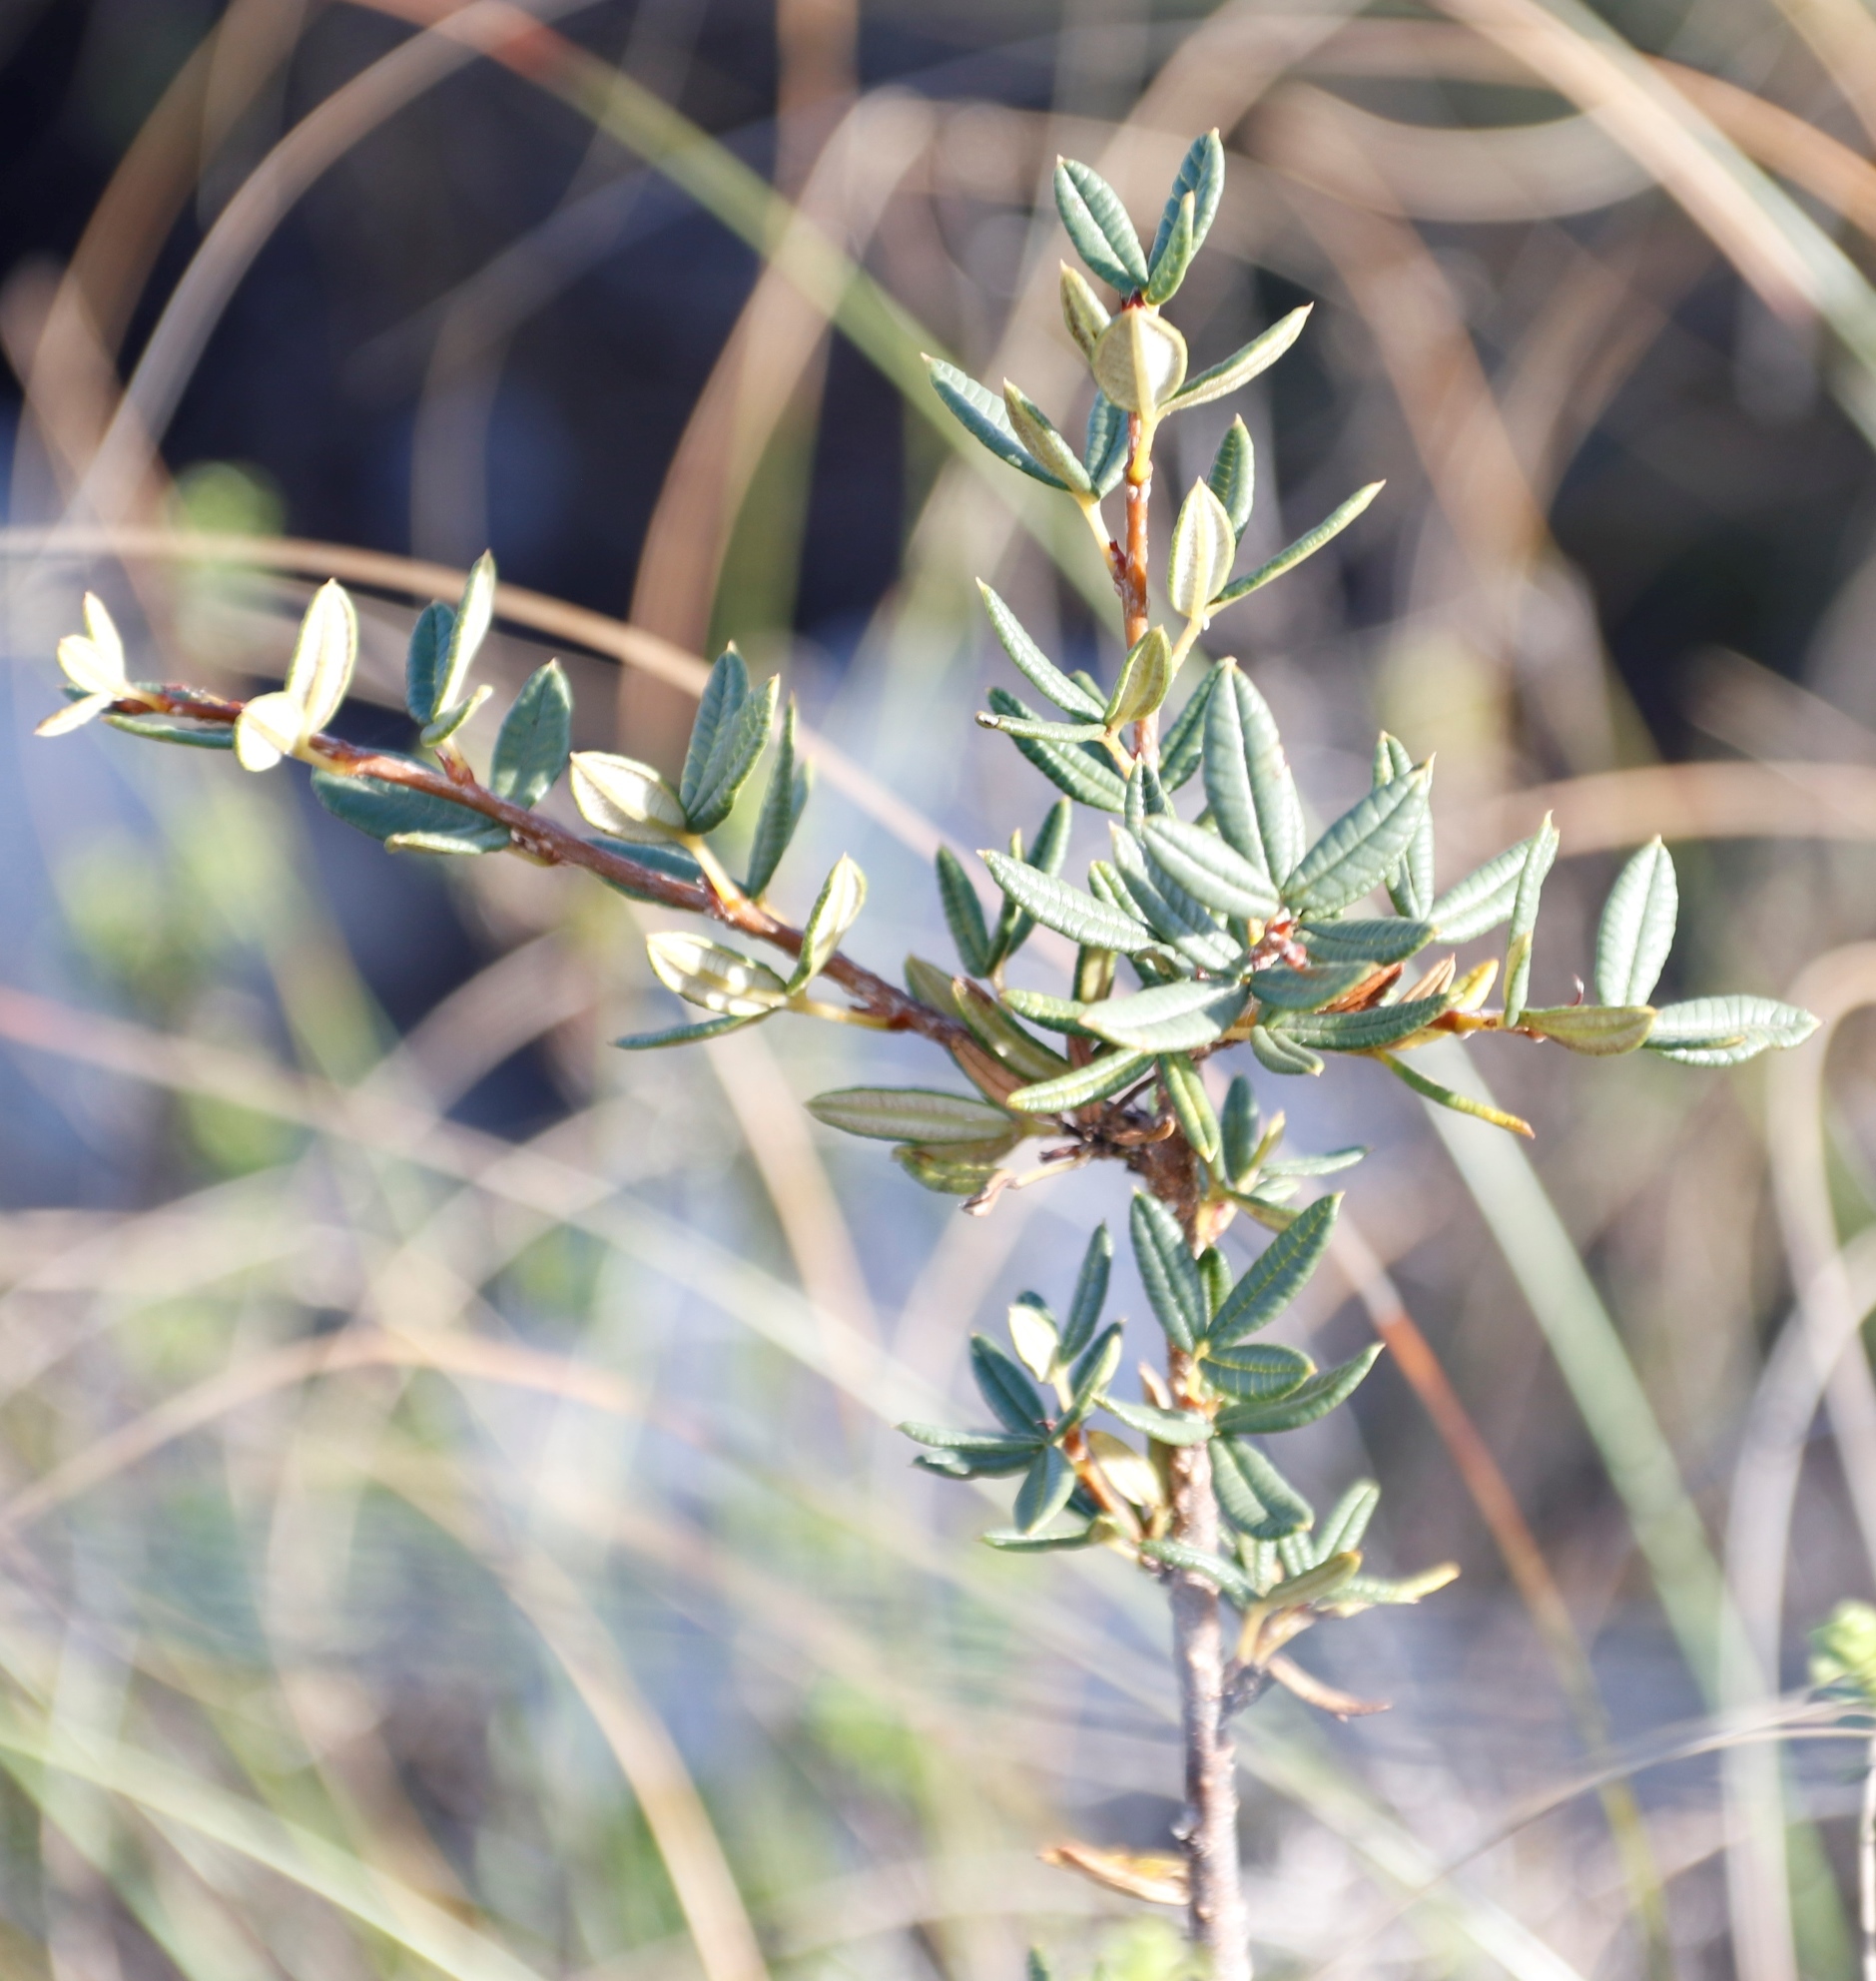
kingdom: Plantae
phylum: Tracheophyta
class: Magnoliopsida
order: Sapindales
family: Anacardiaceae
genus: Searsia
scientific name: Searsia rosmarinifolia
